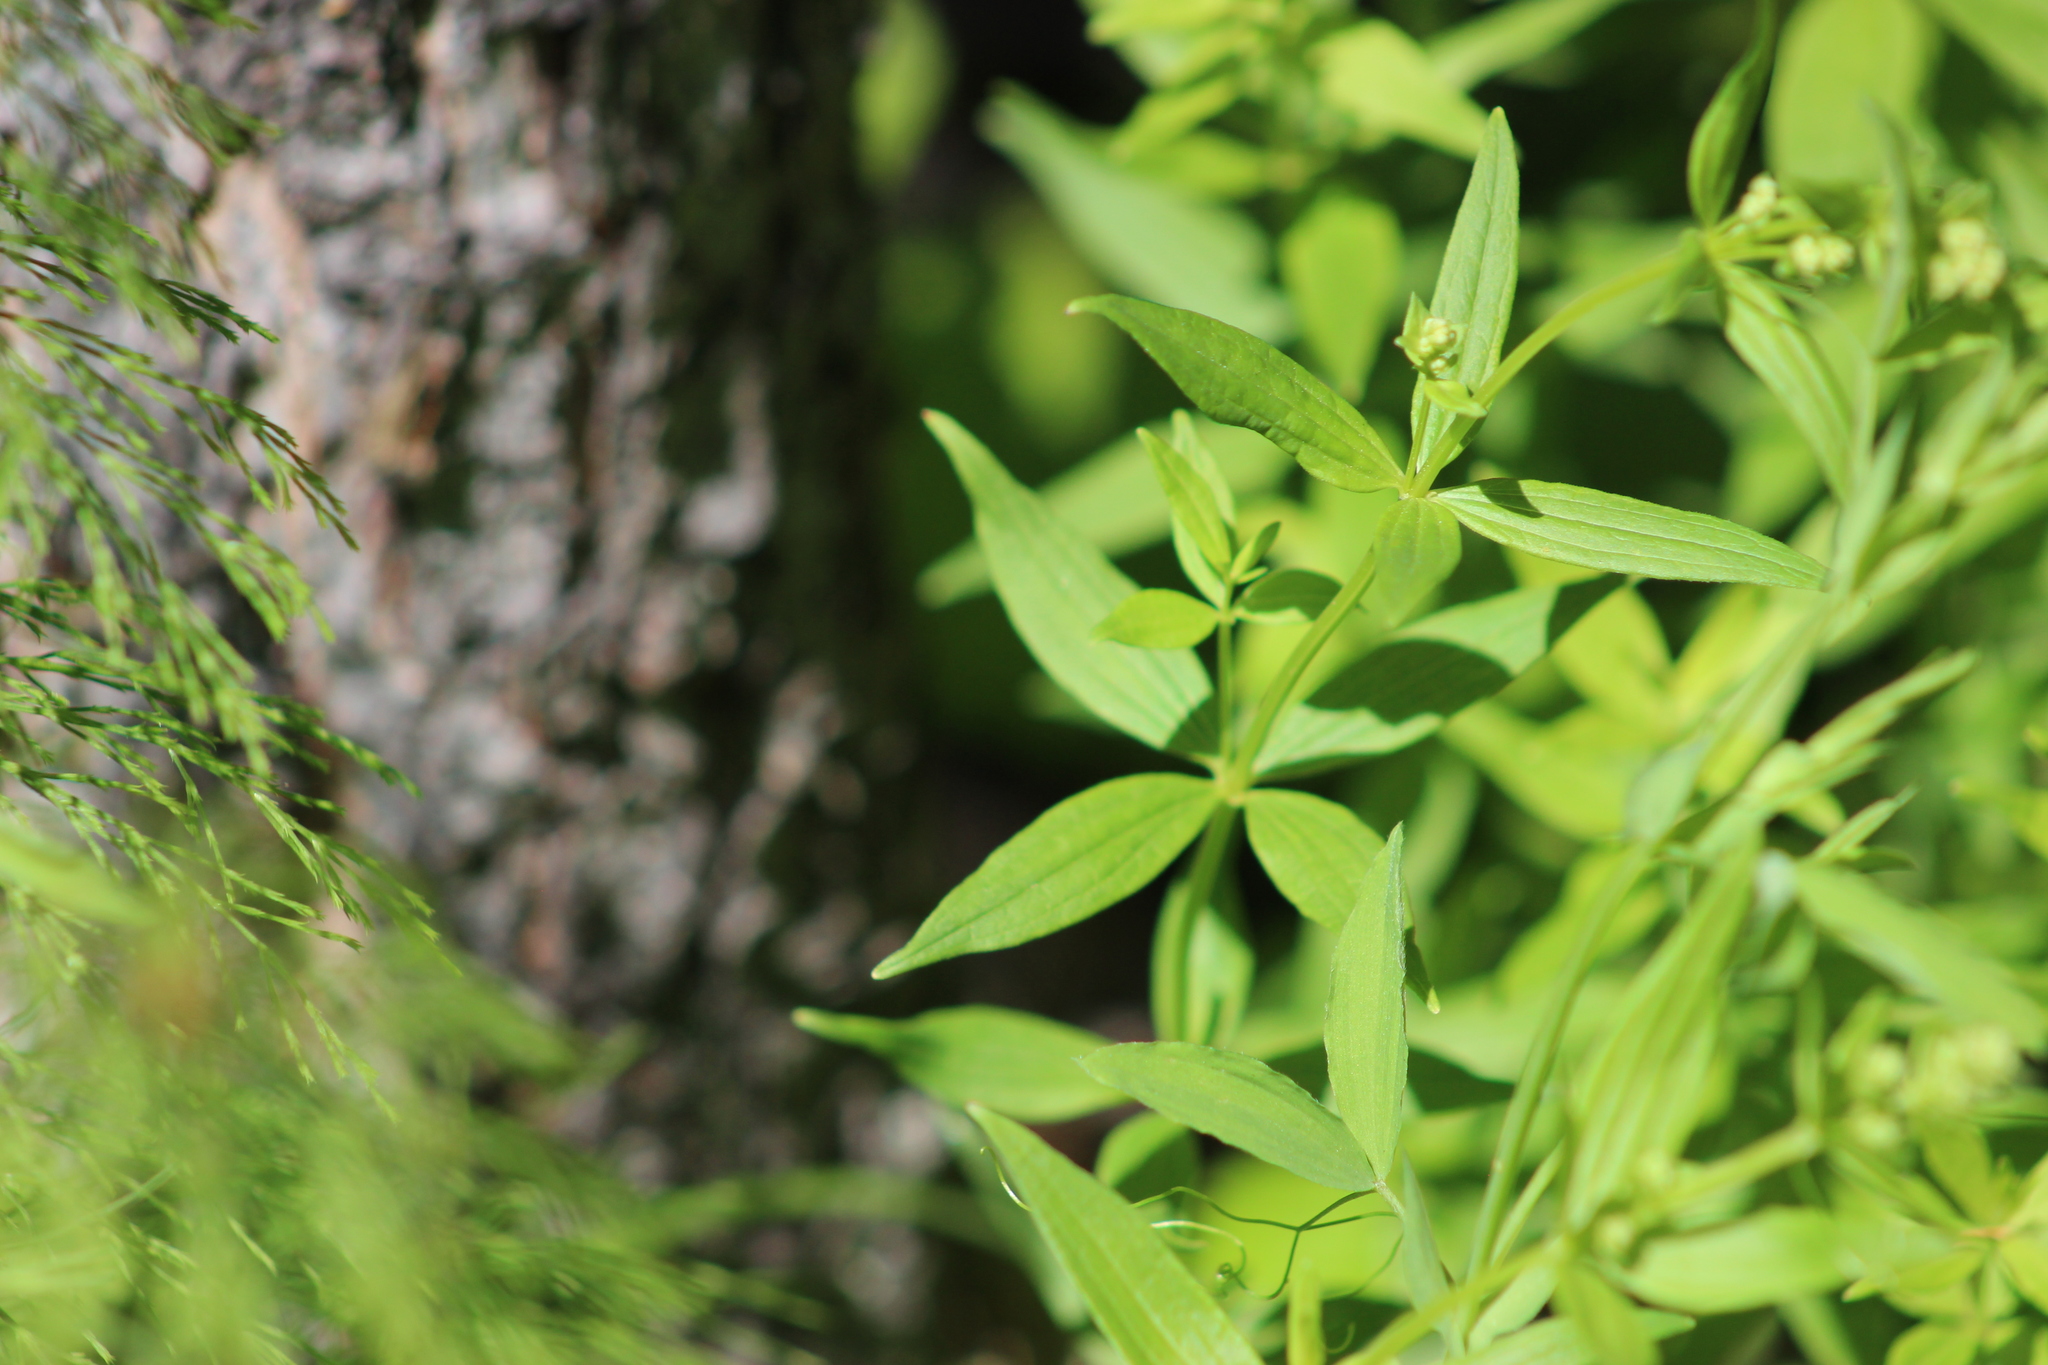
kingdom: Plantae
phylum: Tracheophyta
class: Magnoliopsida
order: Gentianales
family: Rubiaceae
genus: Galium
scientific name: Galium boreale
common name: Northern bedstraw
